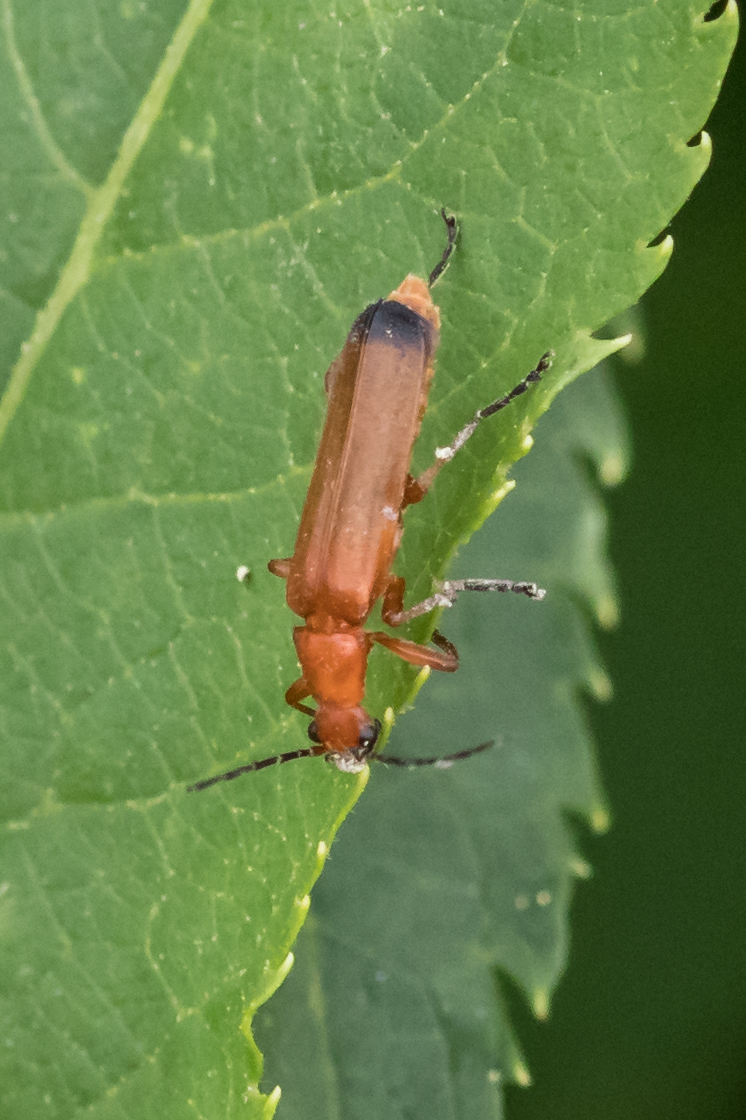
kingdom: Animalia
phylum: Arthropoda
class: Insecta
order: Coleoptera
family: Cantharidae
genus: Rhagonycha
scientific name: Rhagonycha fulva
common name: Common red soldier beetle
